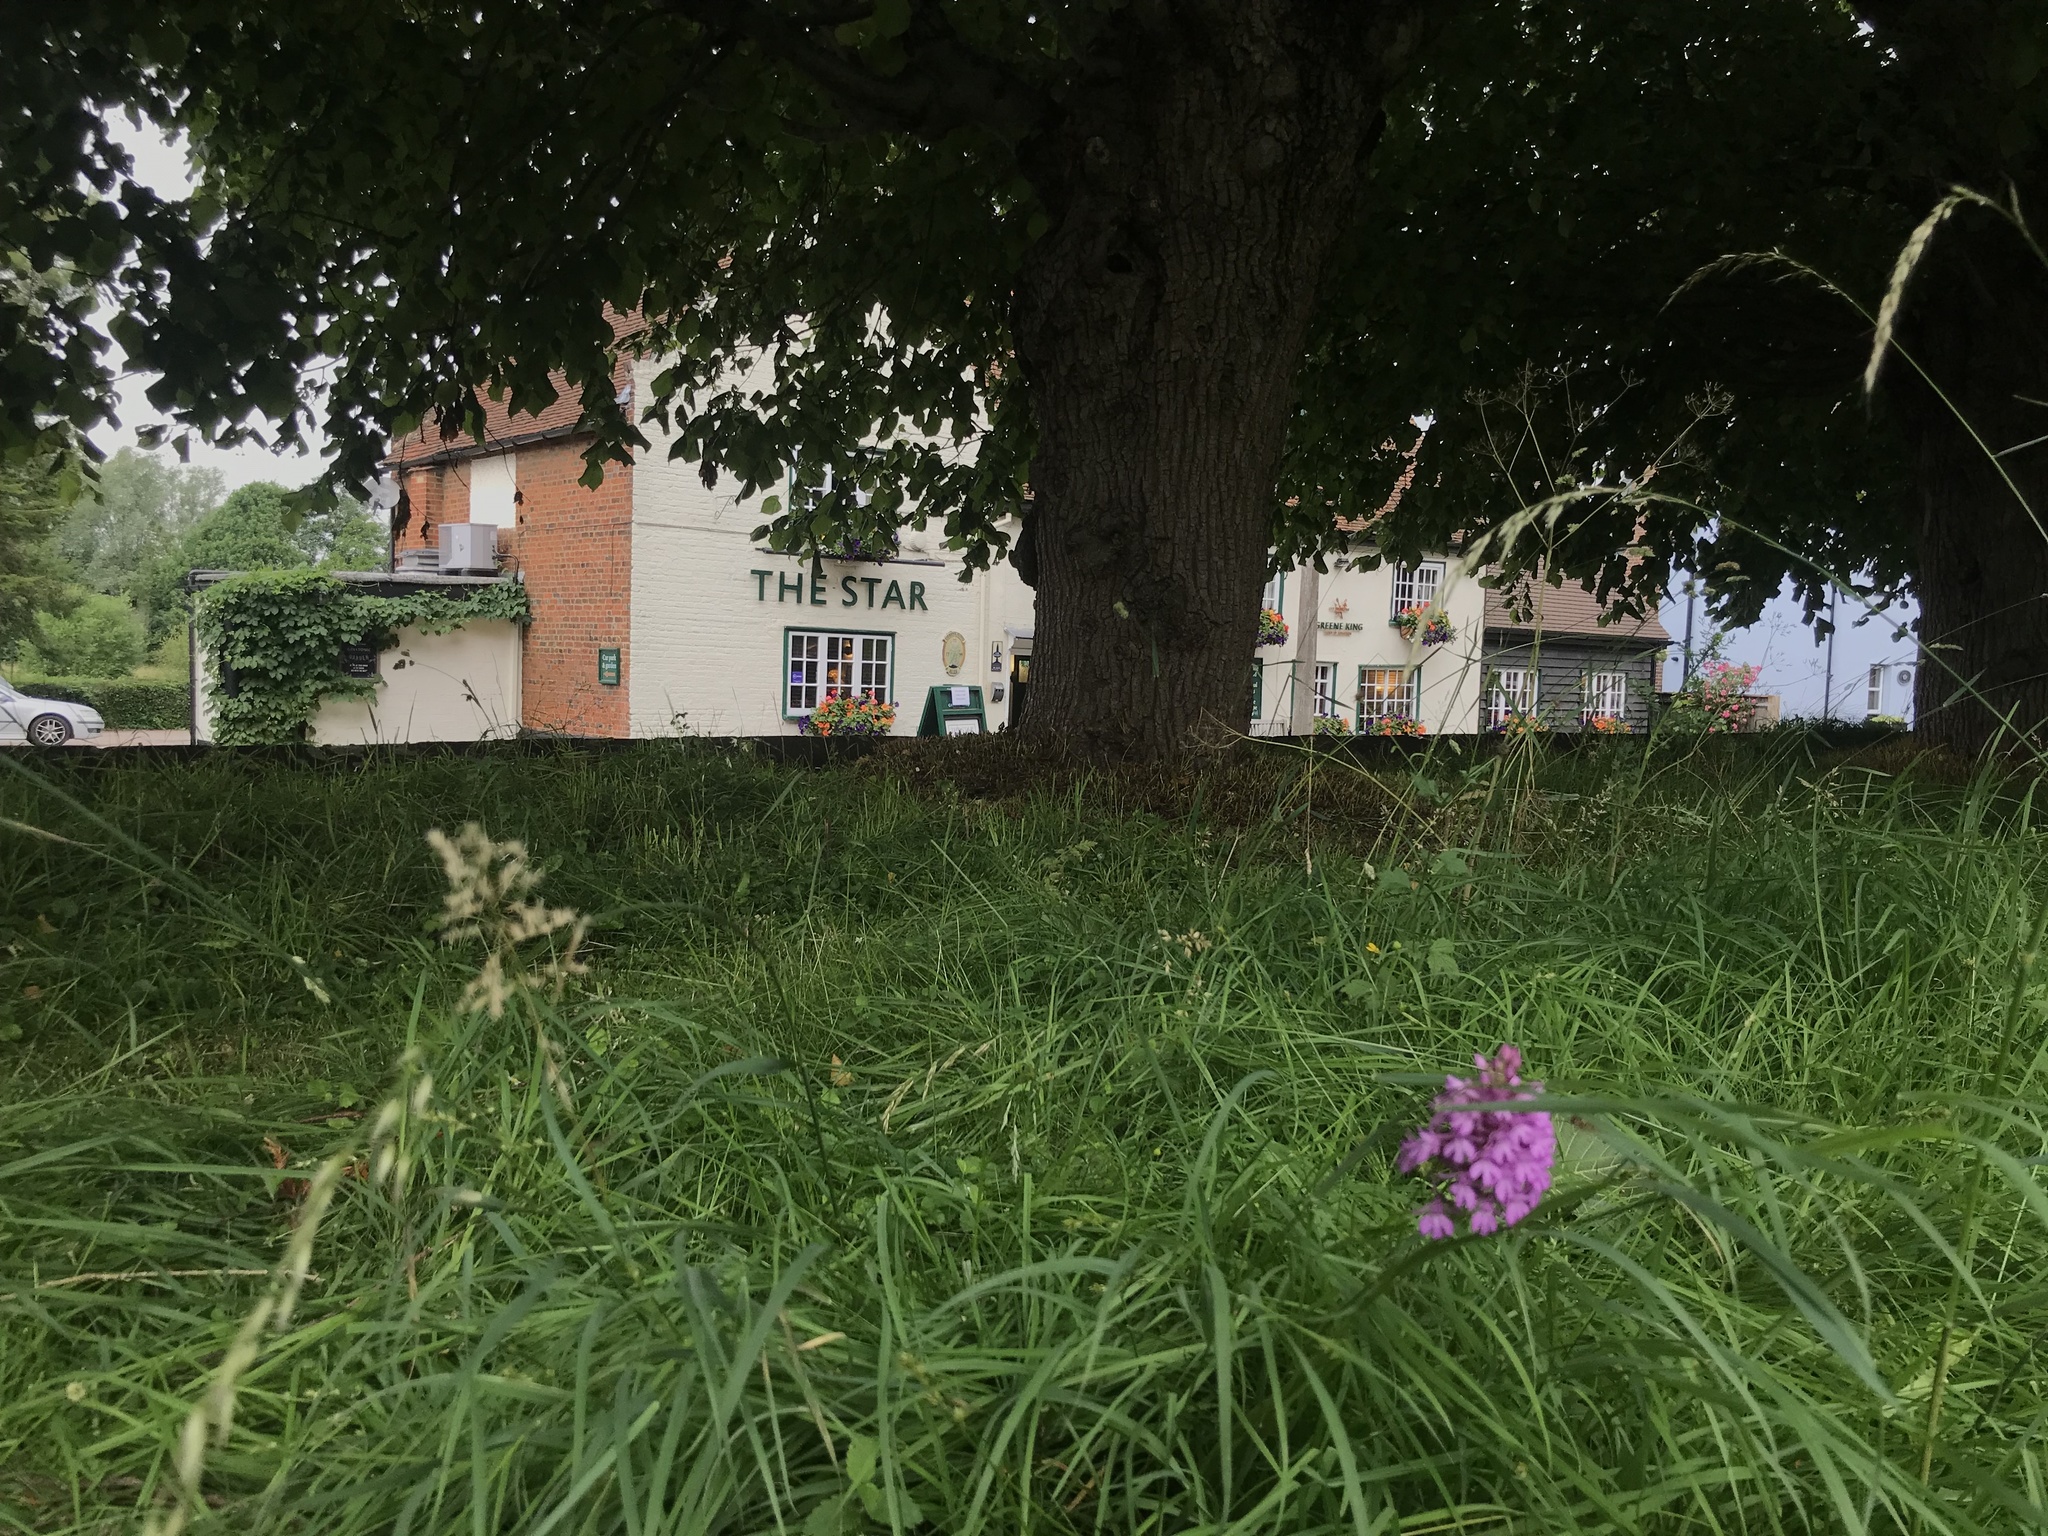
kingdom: Plantae
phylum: Tracheophyta
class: Liliopsida
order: Asparagales
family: Orchidaceae
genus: Anacamptis
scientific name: Anacamptis pyramidalis
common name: Pyramidal orchid
